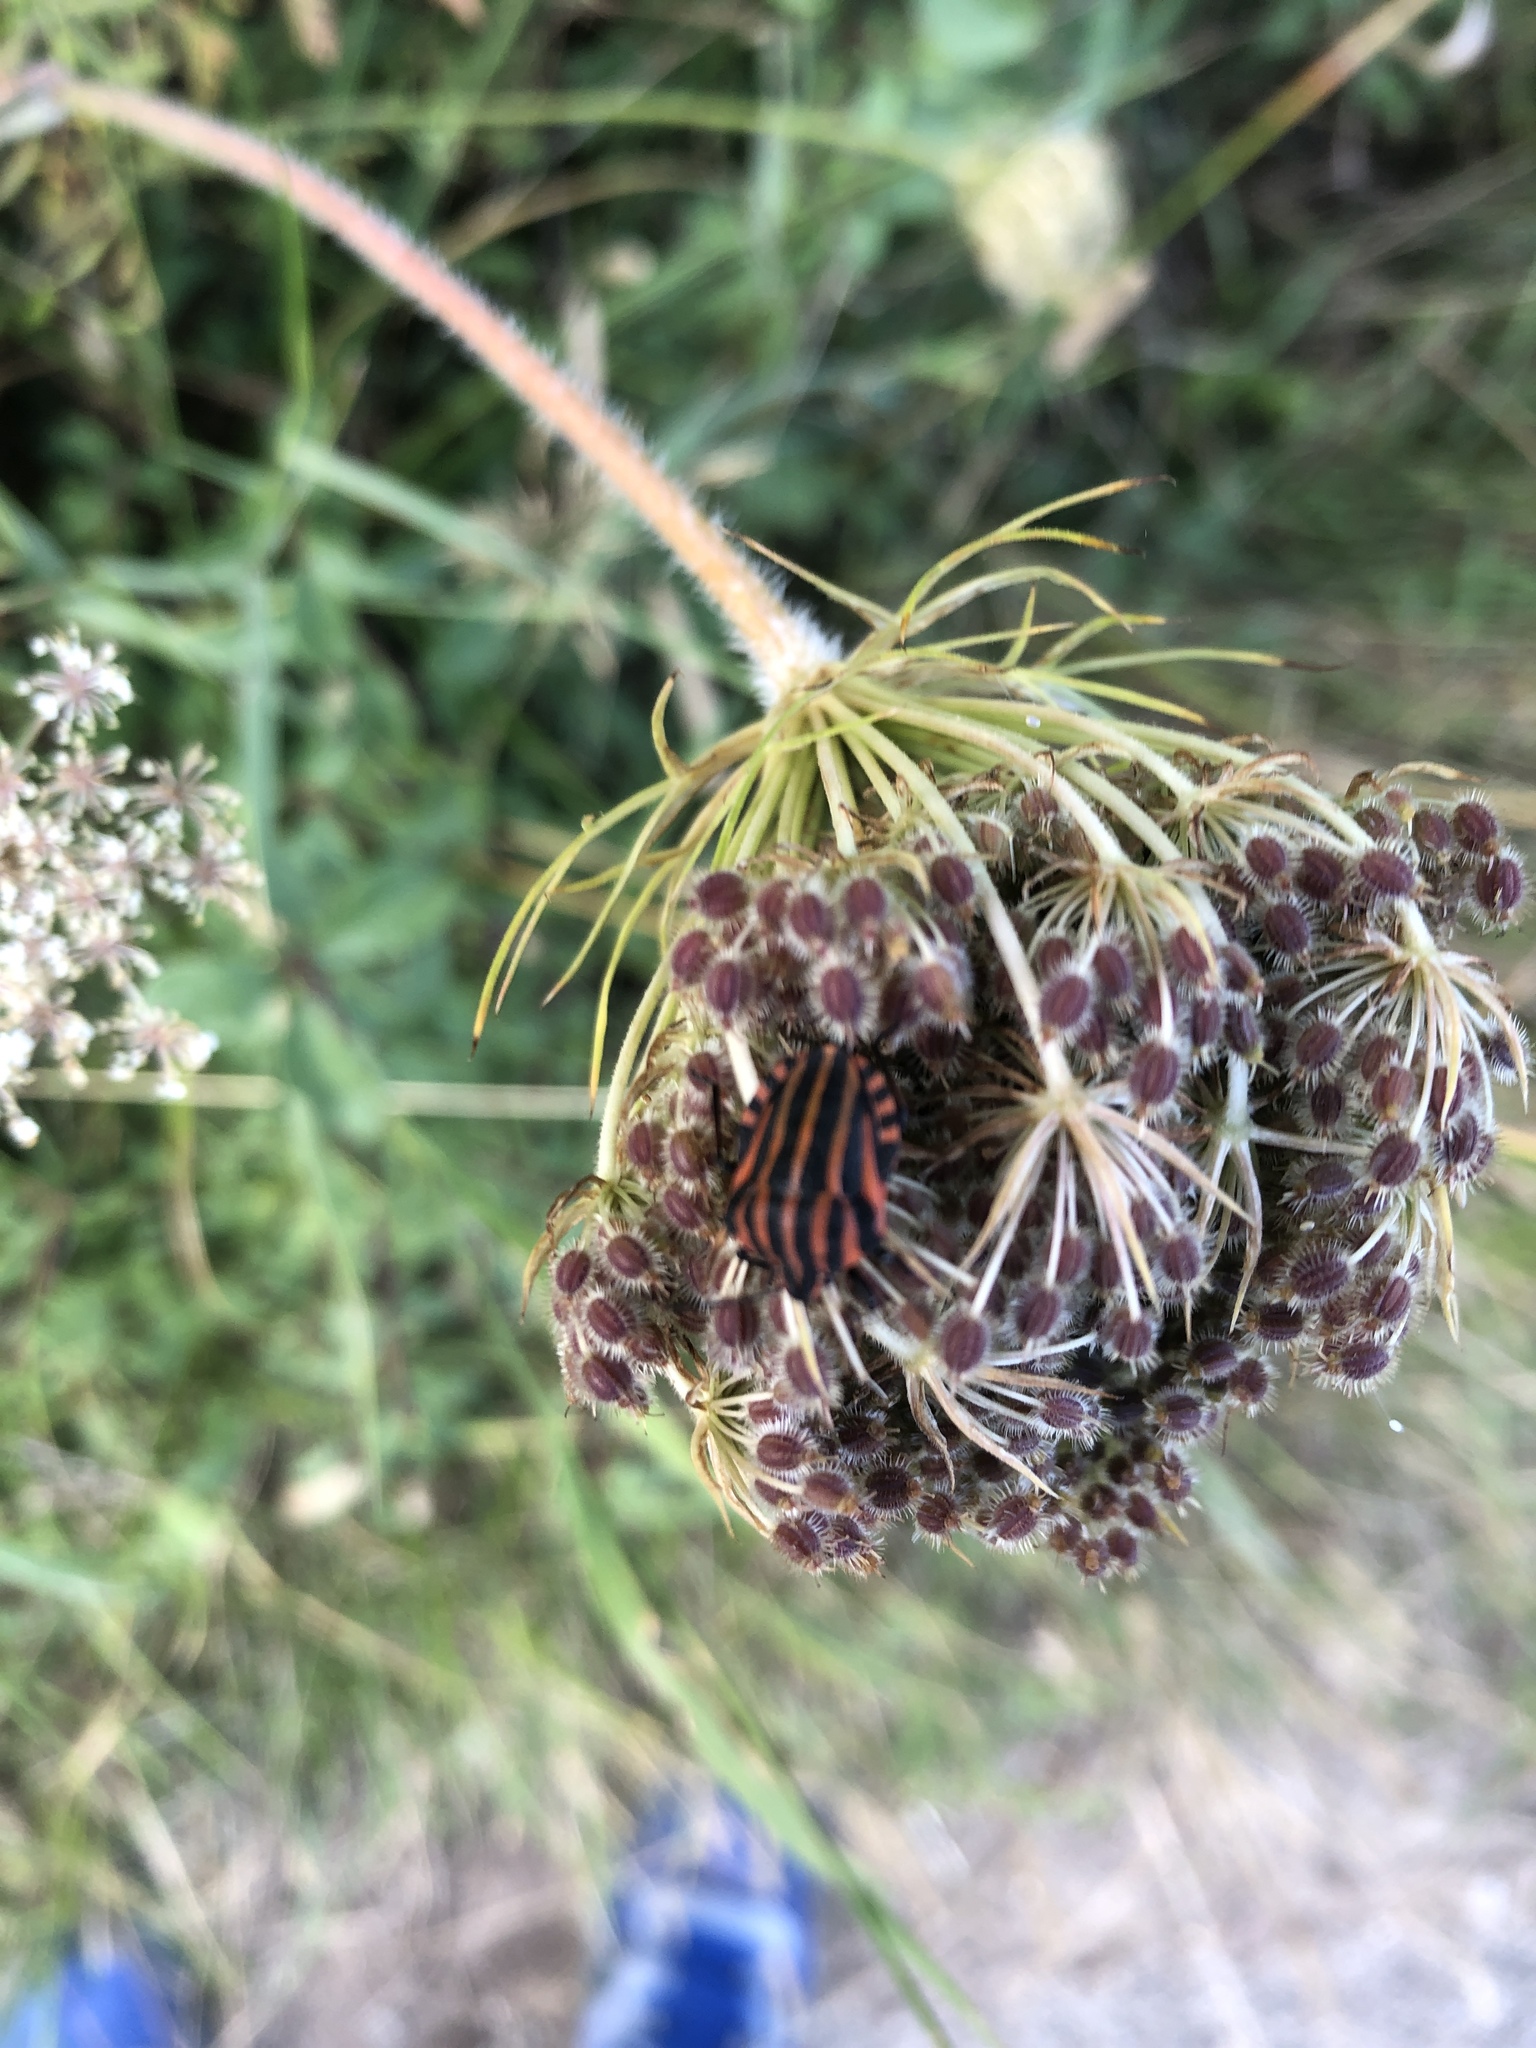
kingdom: Animalia
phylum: Arthropoda
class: Insecta
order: Hemiptera
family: Pentatomidae
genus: Graphosoma
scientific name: Graphosoma italicum
